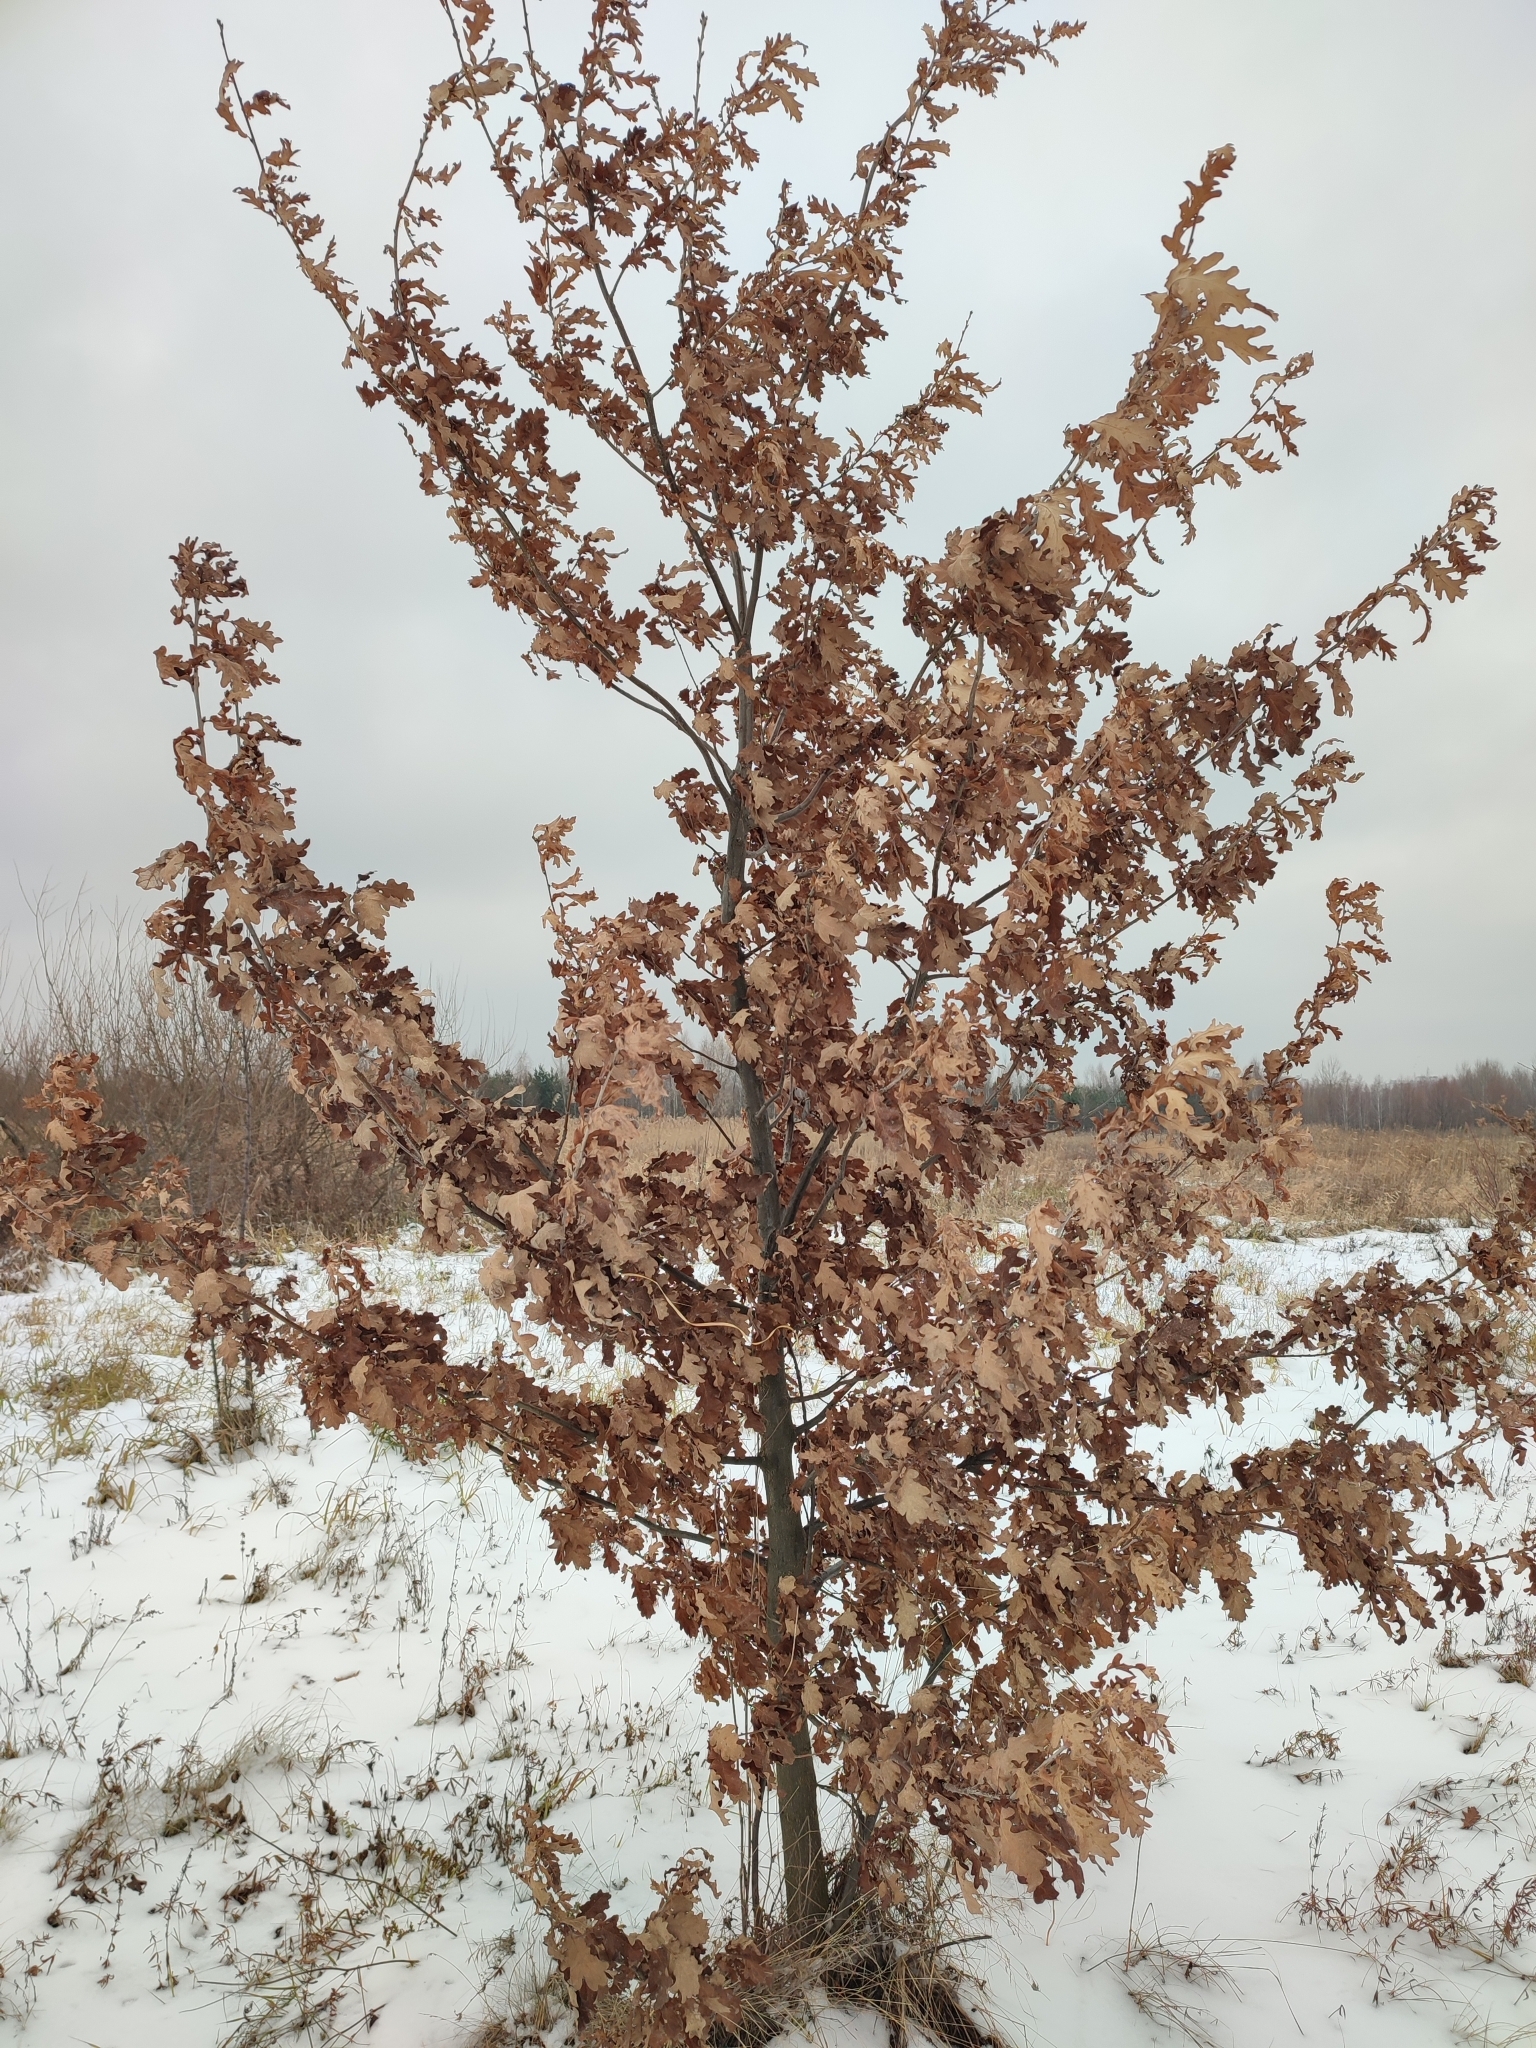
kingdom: Plantae
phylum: Tracheophyta
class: Magnoliopsida
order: Fagales
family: Fagaceae
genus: Quercus
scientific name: Quercus robur
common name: Pedunculate oak
